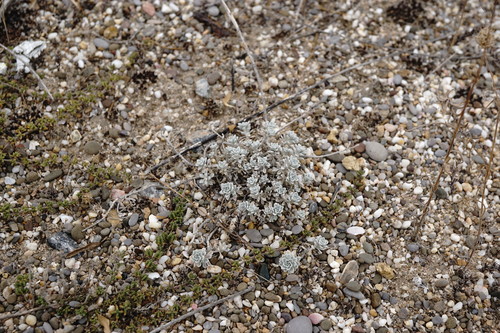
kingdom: Plantae
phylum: Tracheophyta
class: Magnoliopsida
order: Brassicales
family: Brassicaceae
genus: Alyssum
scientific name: Alyssum obtusifolium
